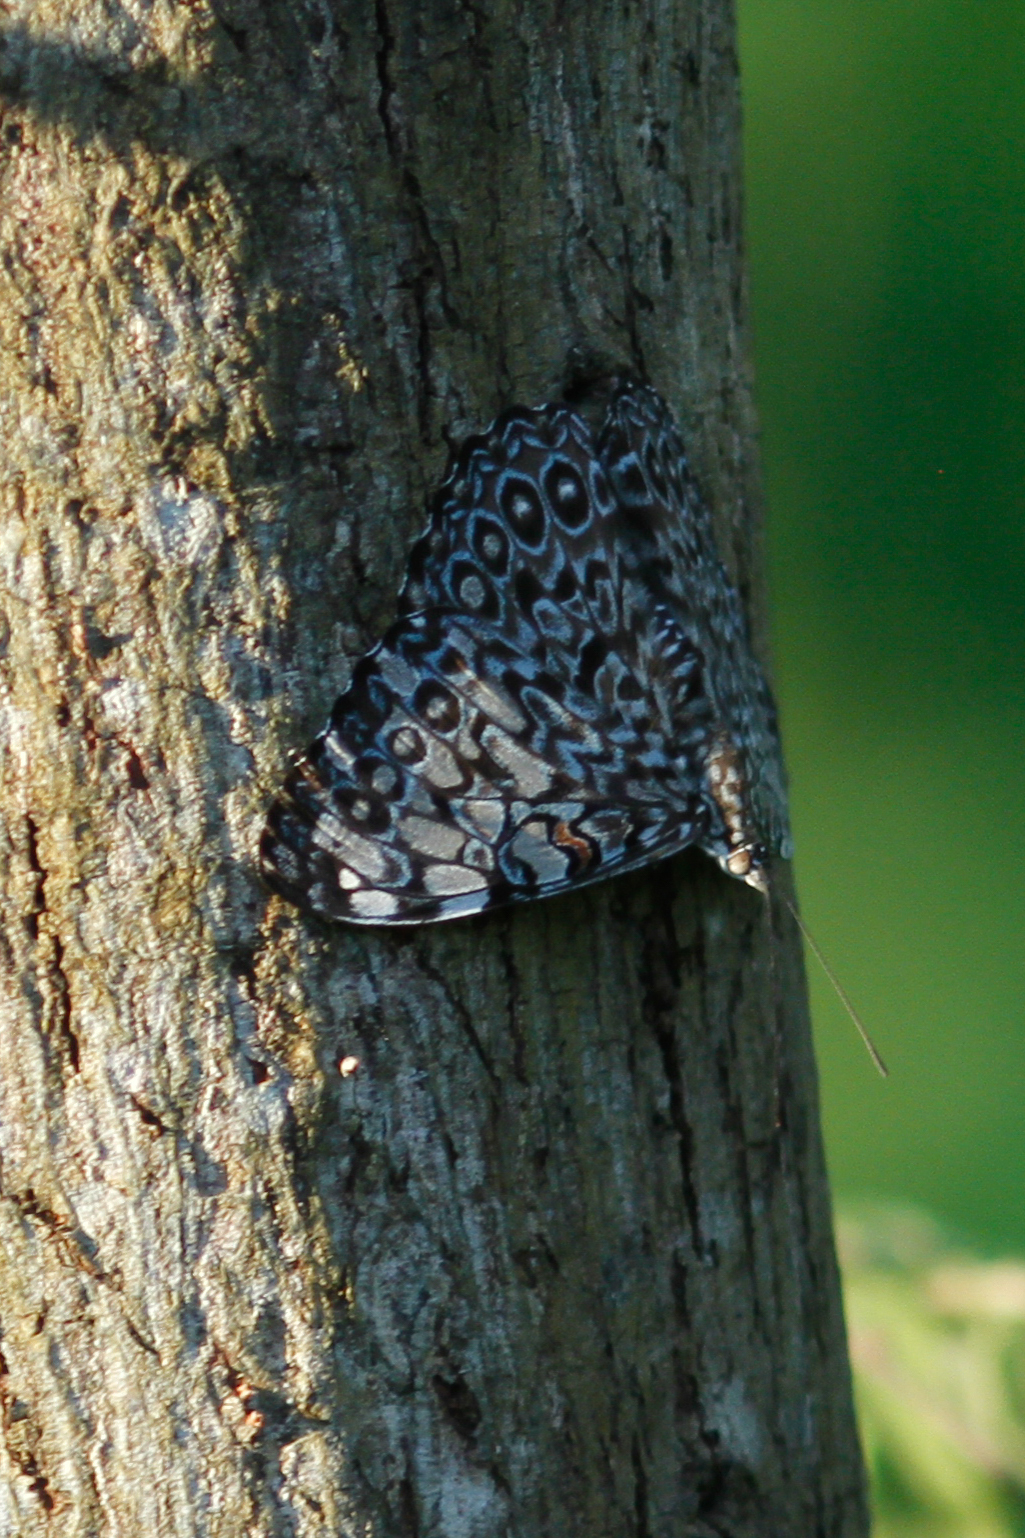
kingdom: Animalia
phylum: Arthropoda
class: Insecta
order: Lepidoptera
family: Nymphalidae
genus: Hamadryas
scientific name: Hamadryas feronia
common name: Variable cracker
